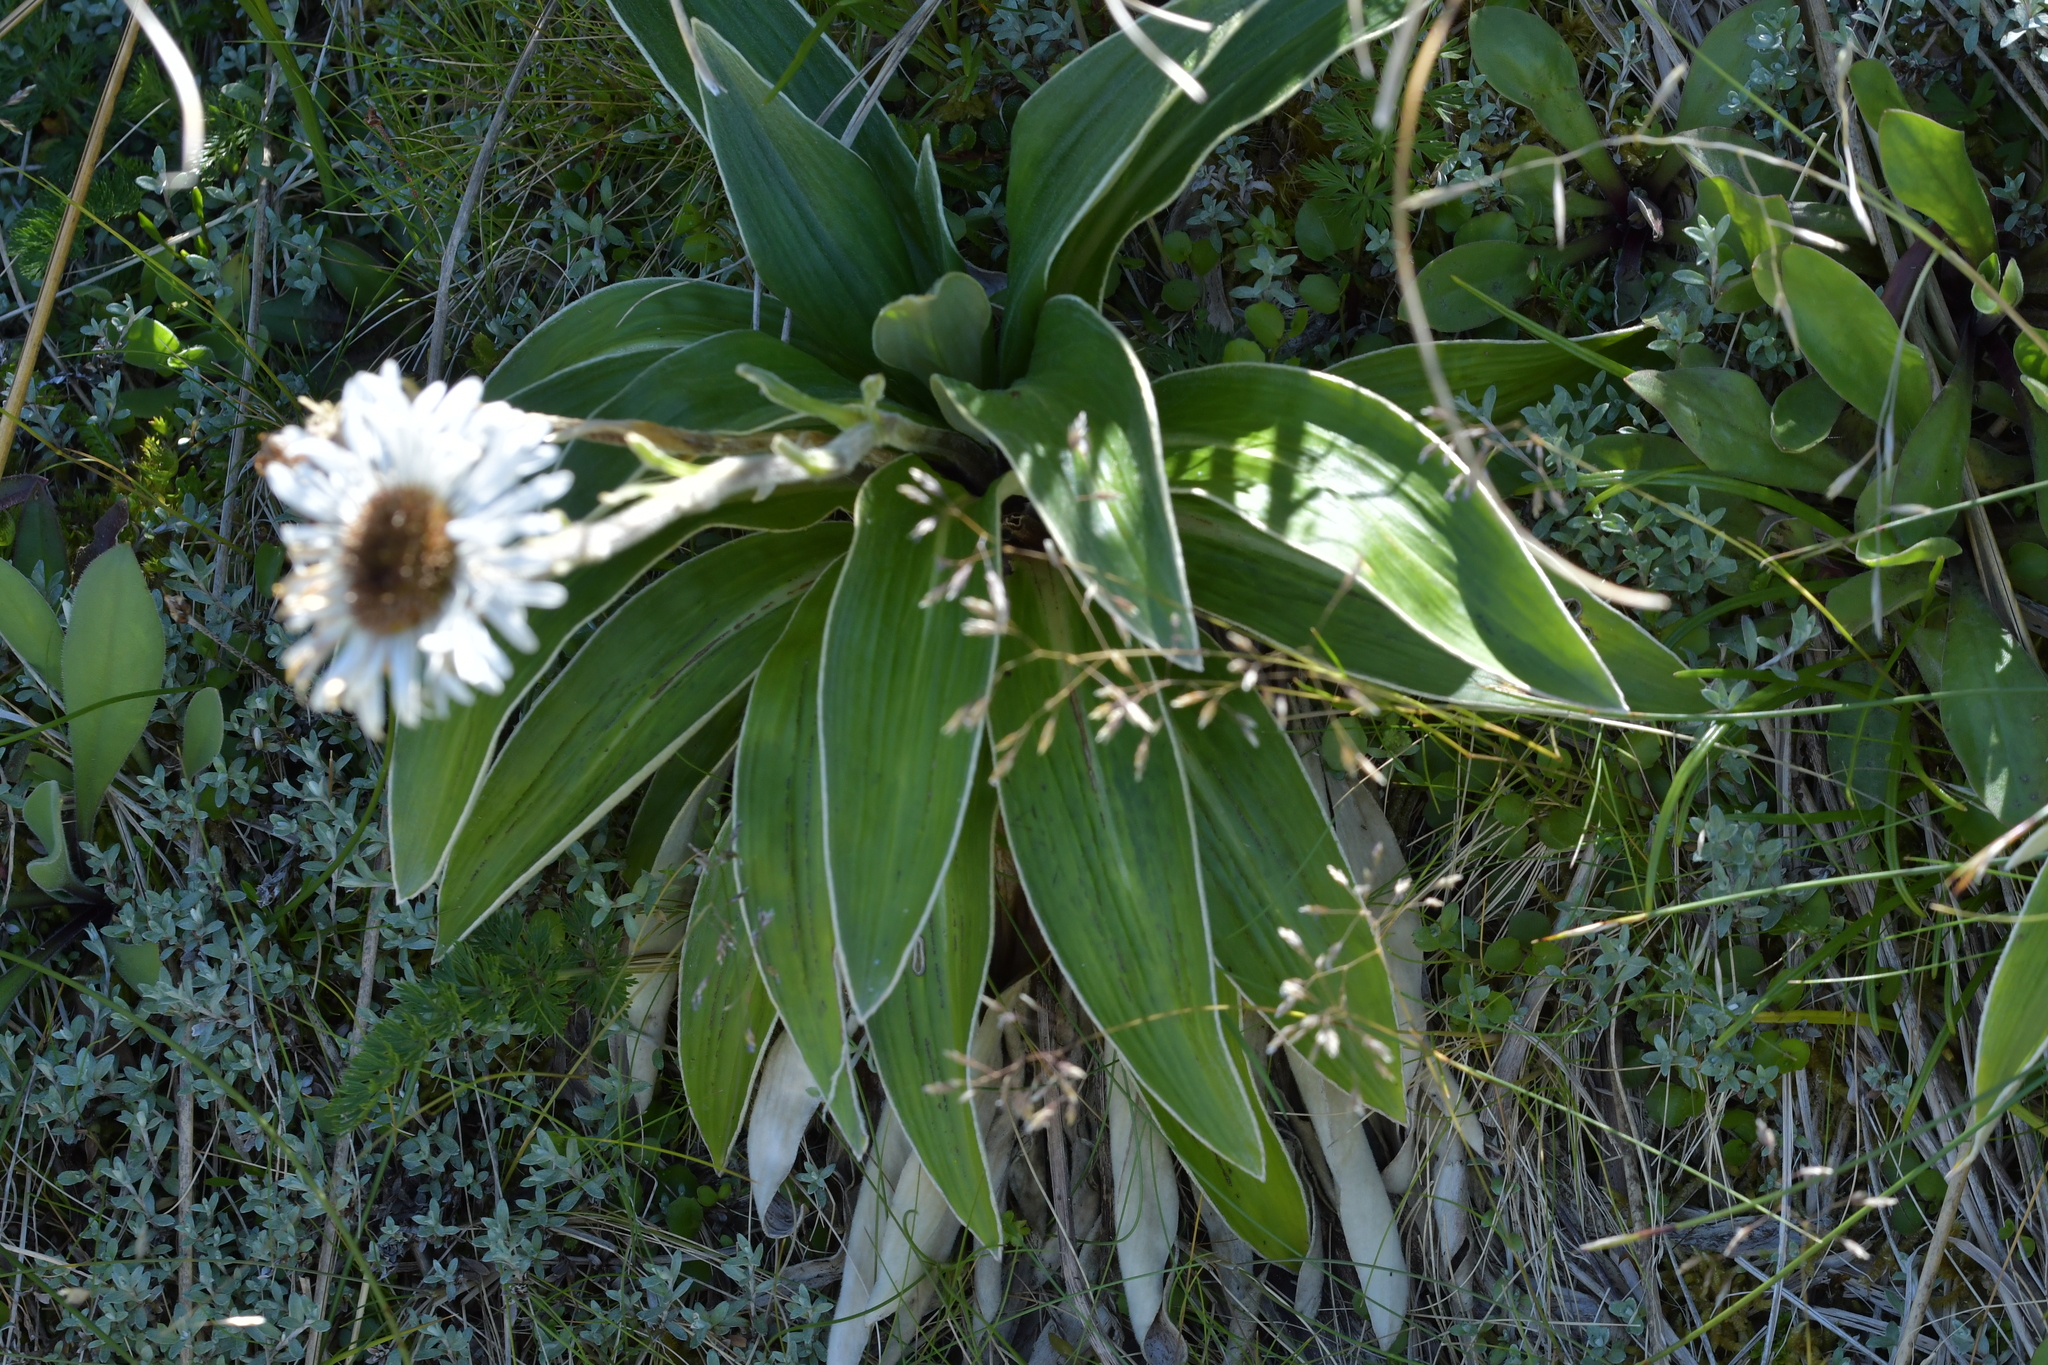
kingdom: Plantae
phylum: Tracheophyta
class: Magnoliopsida
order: Asterales
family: Asteraceae
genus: Celmisia
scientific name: Celmisia verbascifolia
